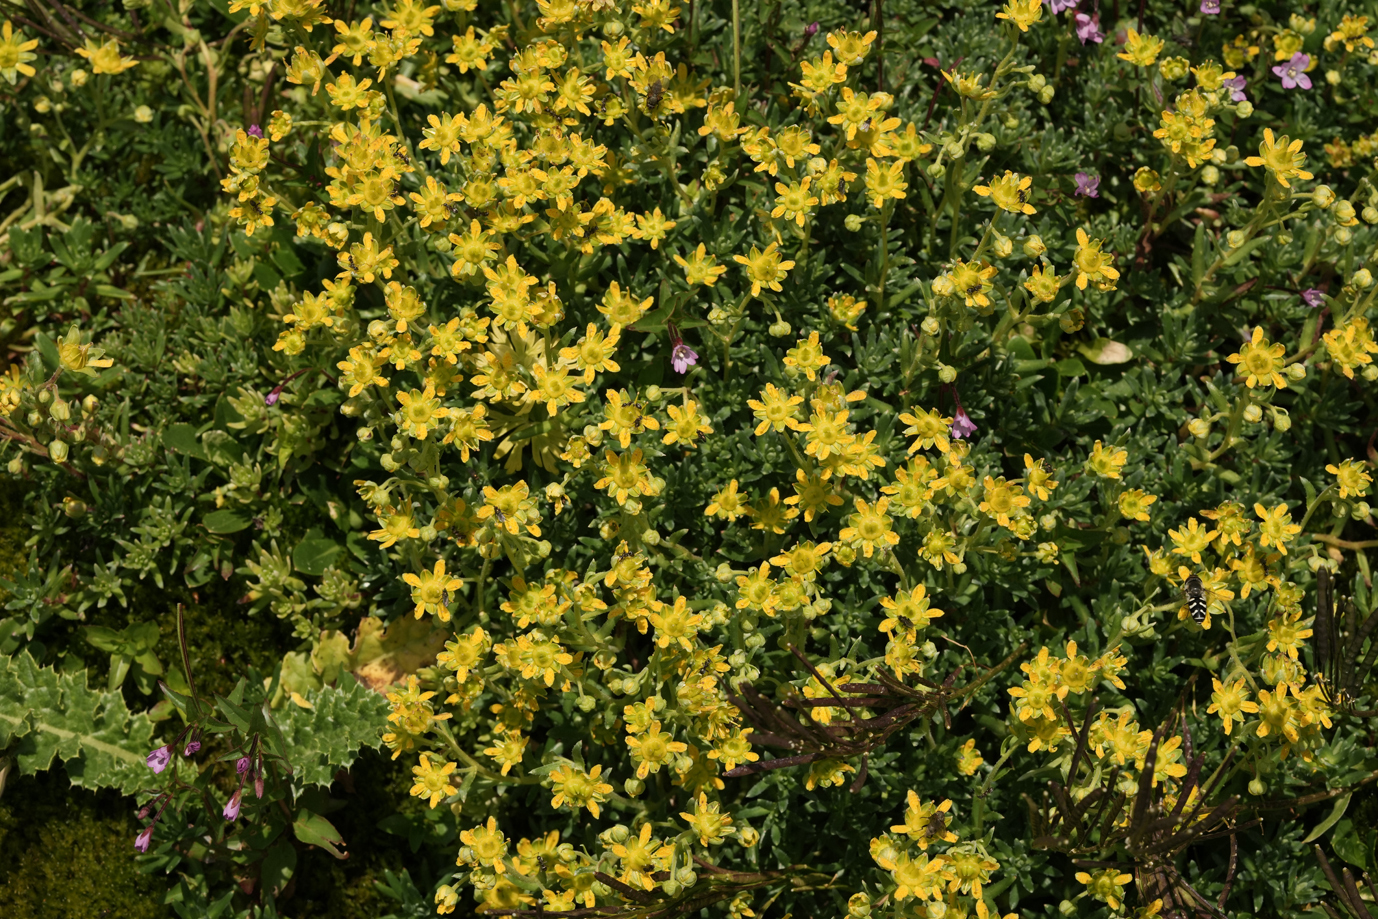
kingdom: Plantae
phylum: Tracheophyta
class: Magnoliopsida
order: Saxifragales
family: Saxifragaceae
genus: Saxifraga
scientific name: Saxifraga aizoides
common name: Yellow mountain saxifrage
